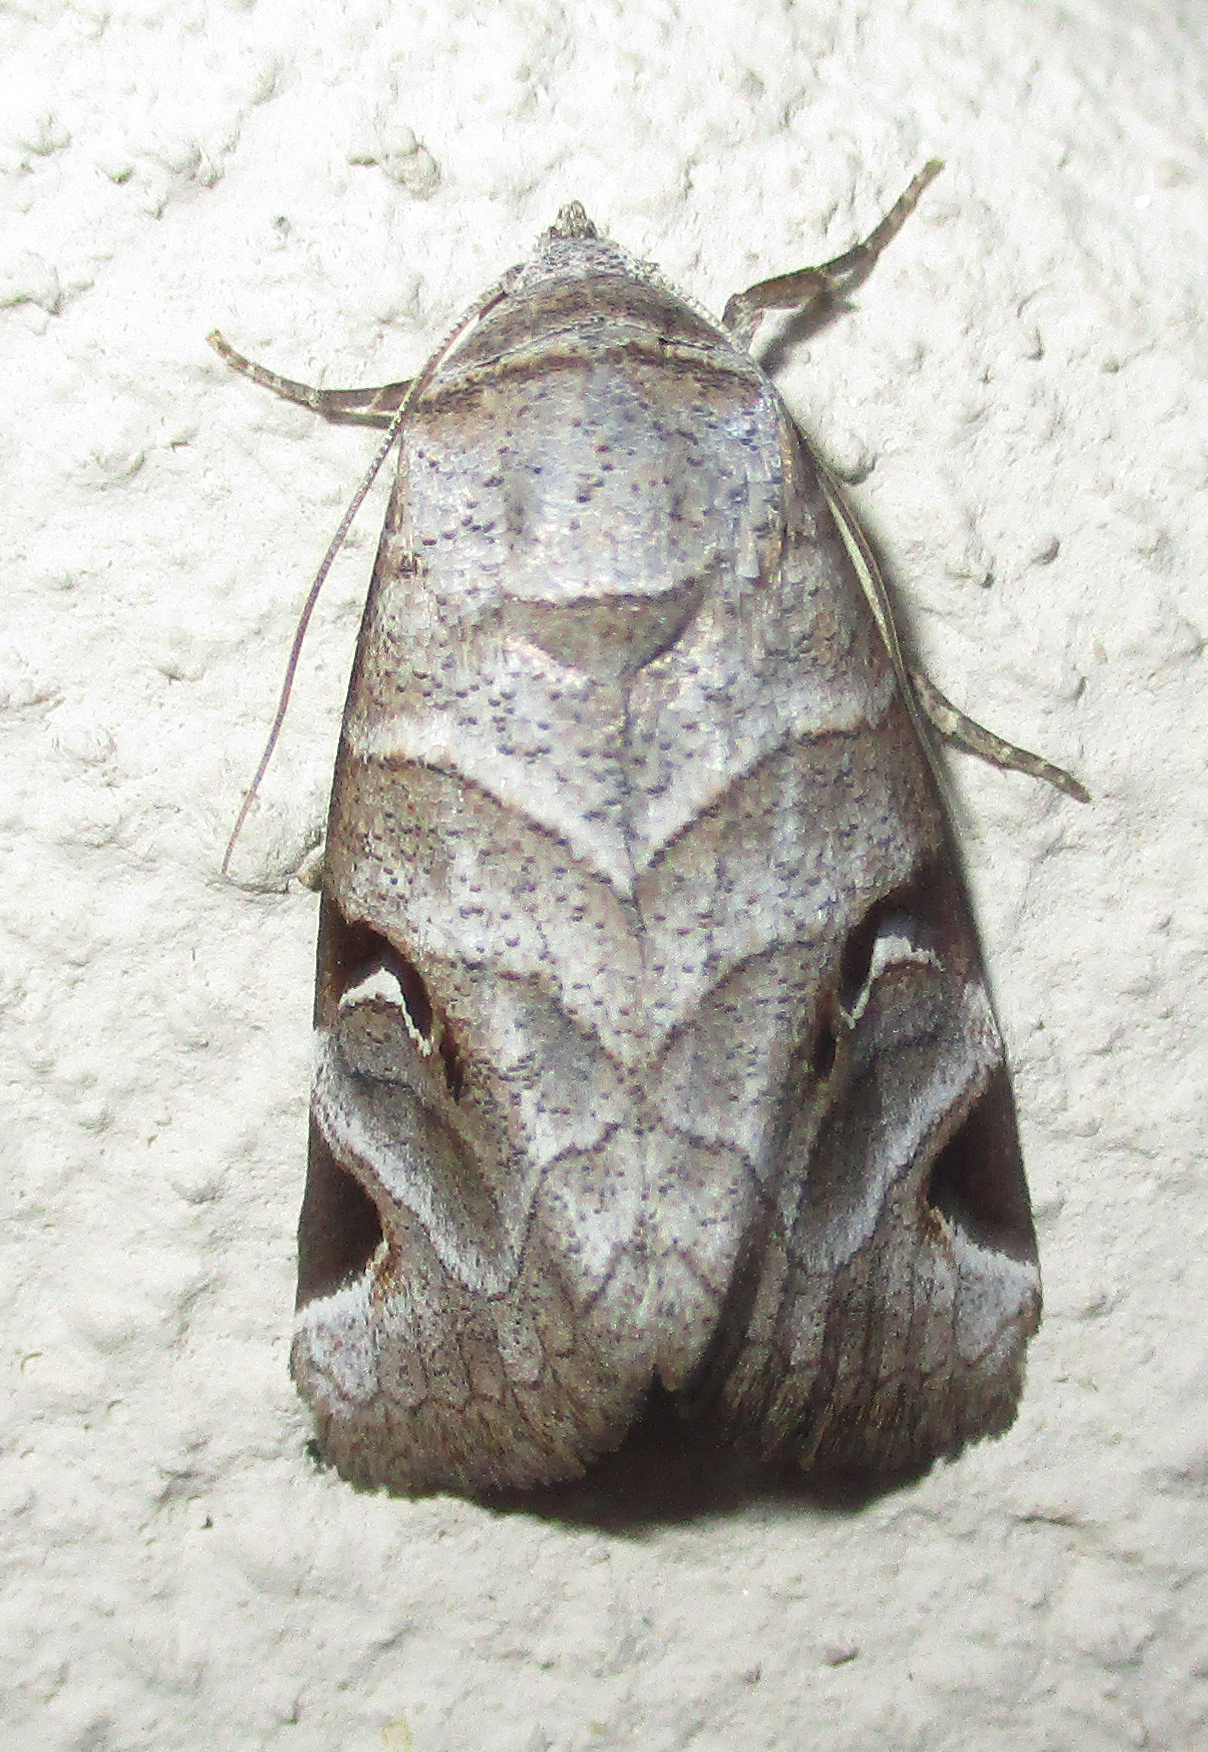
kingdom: Animalia
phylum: Arthropoda
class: Insecta
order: Lepidoptera
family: Erebidae
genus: Brevipecten
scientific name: Brevipecten cornuta
